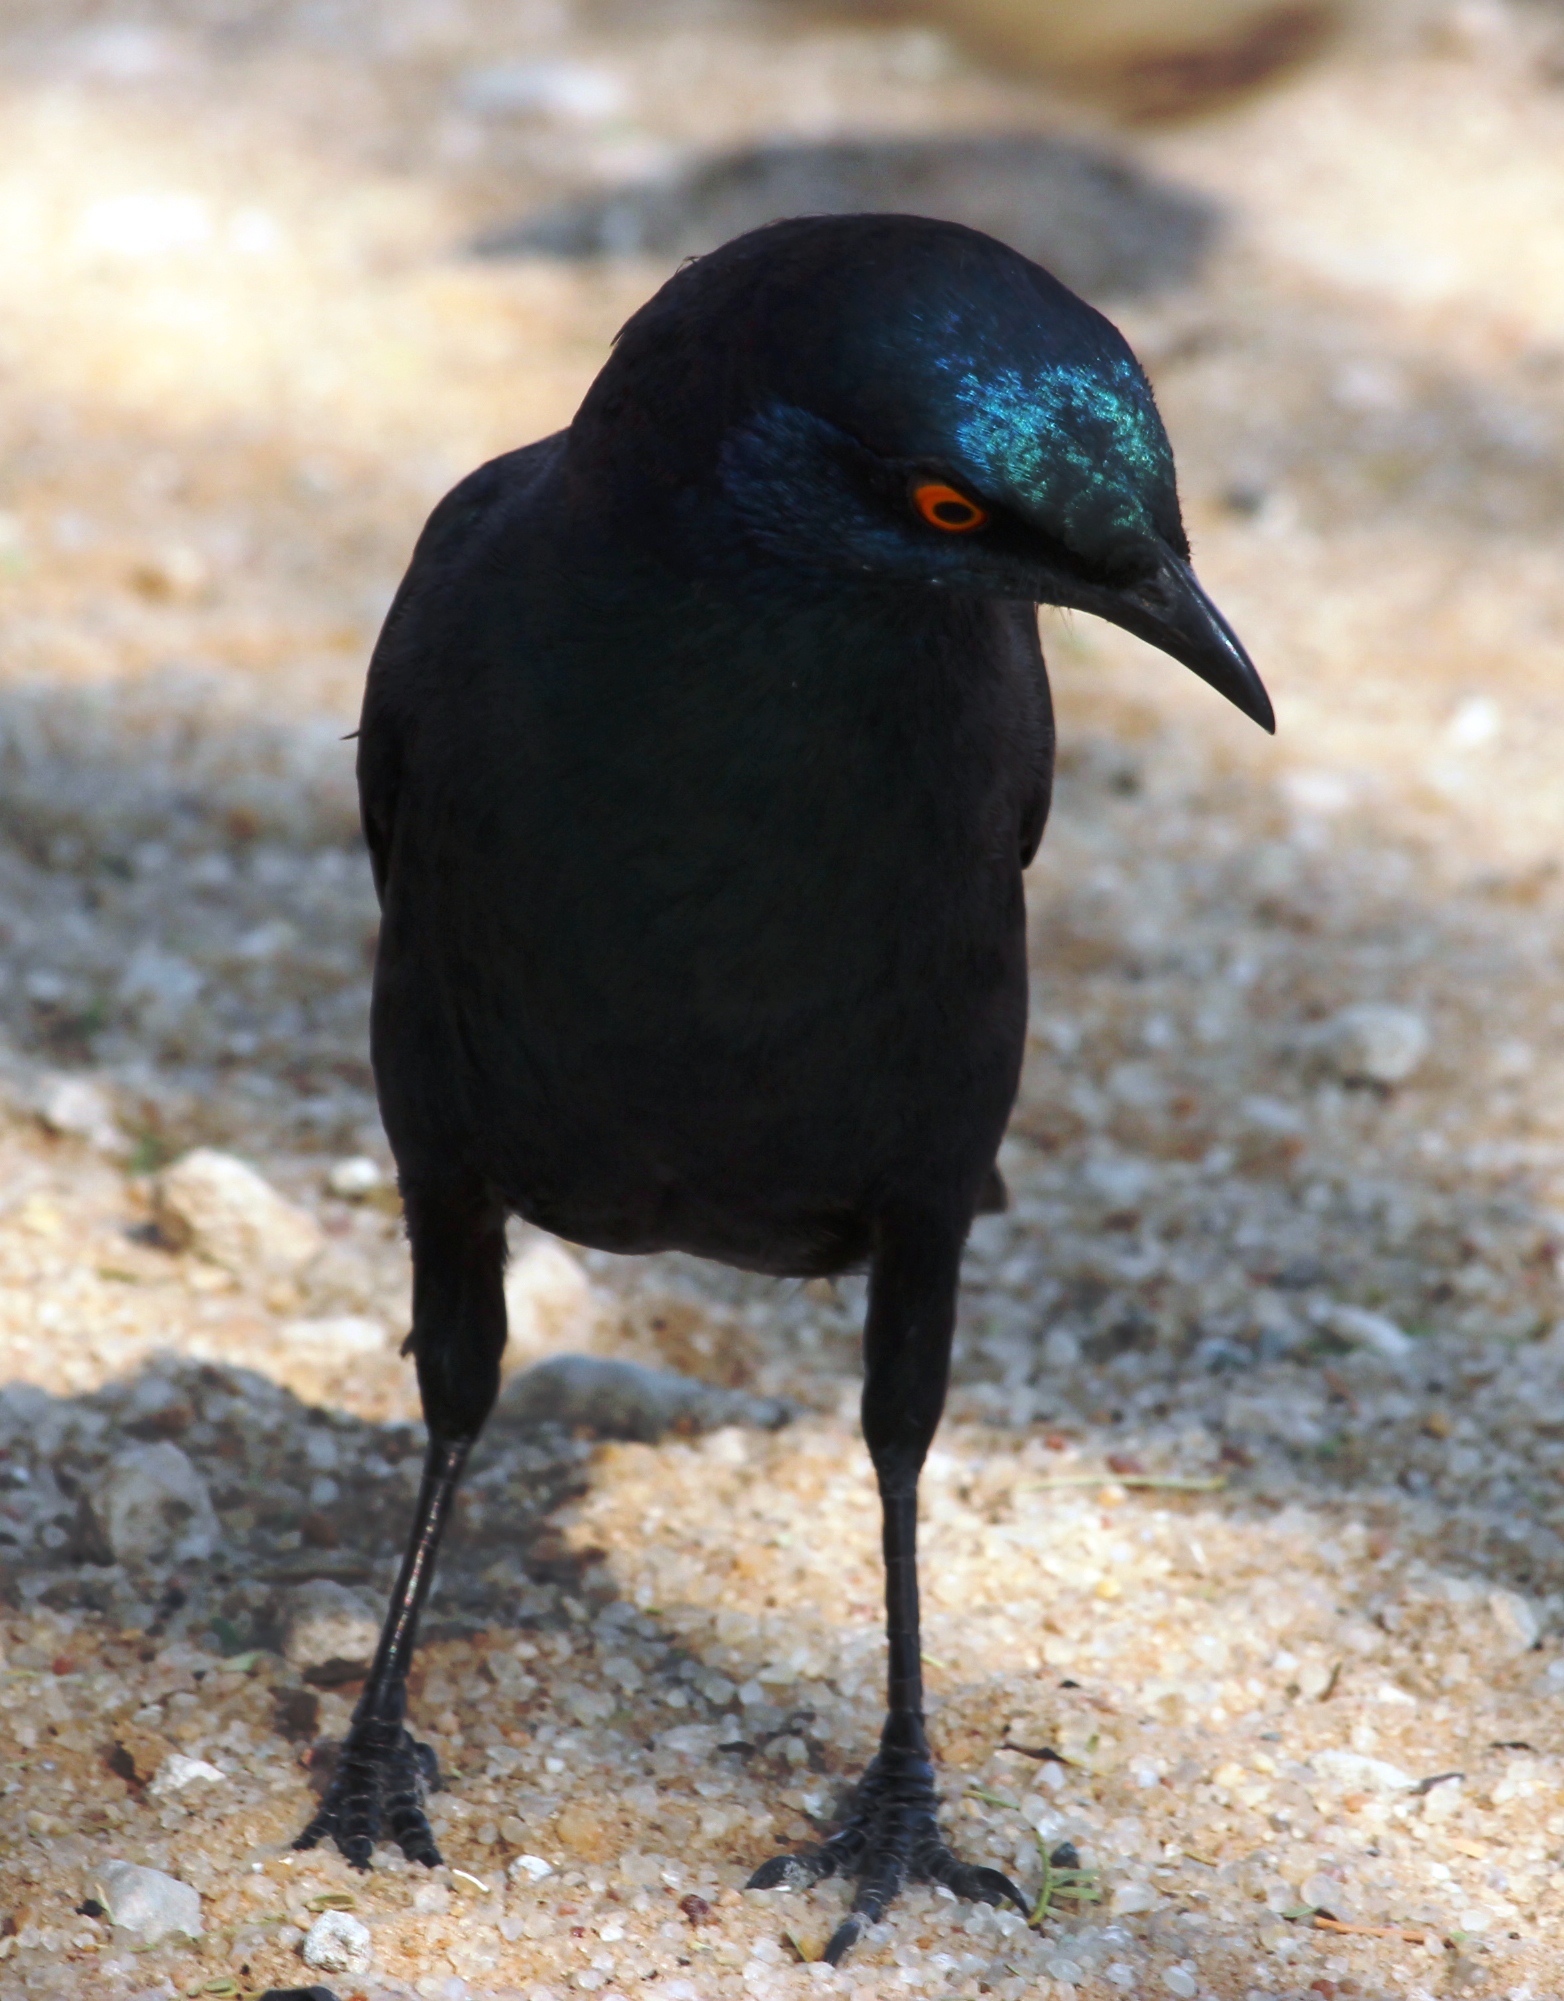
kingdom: Animalia
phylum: Chordata
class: Aves
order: Passeriformes
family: Sturnidae
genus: Lamprotornis
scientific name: Lamprotornis nitens
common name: Cape starling
